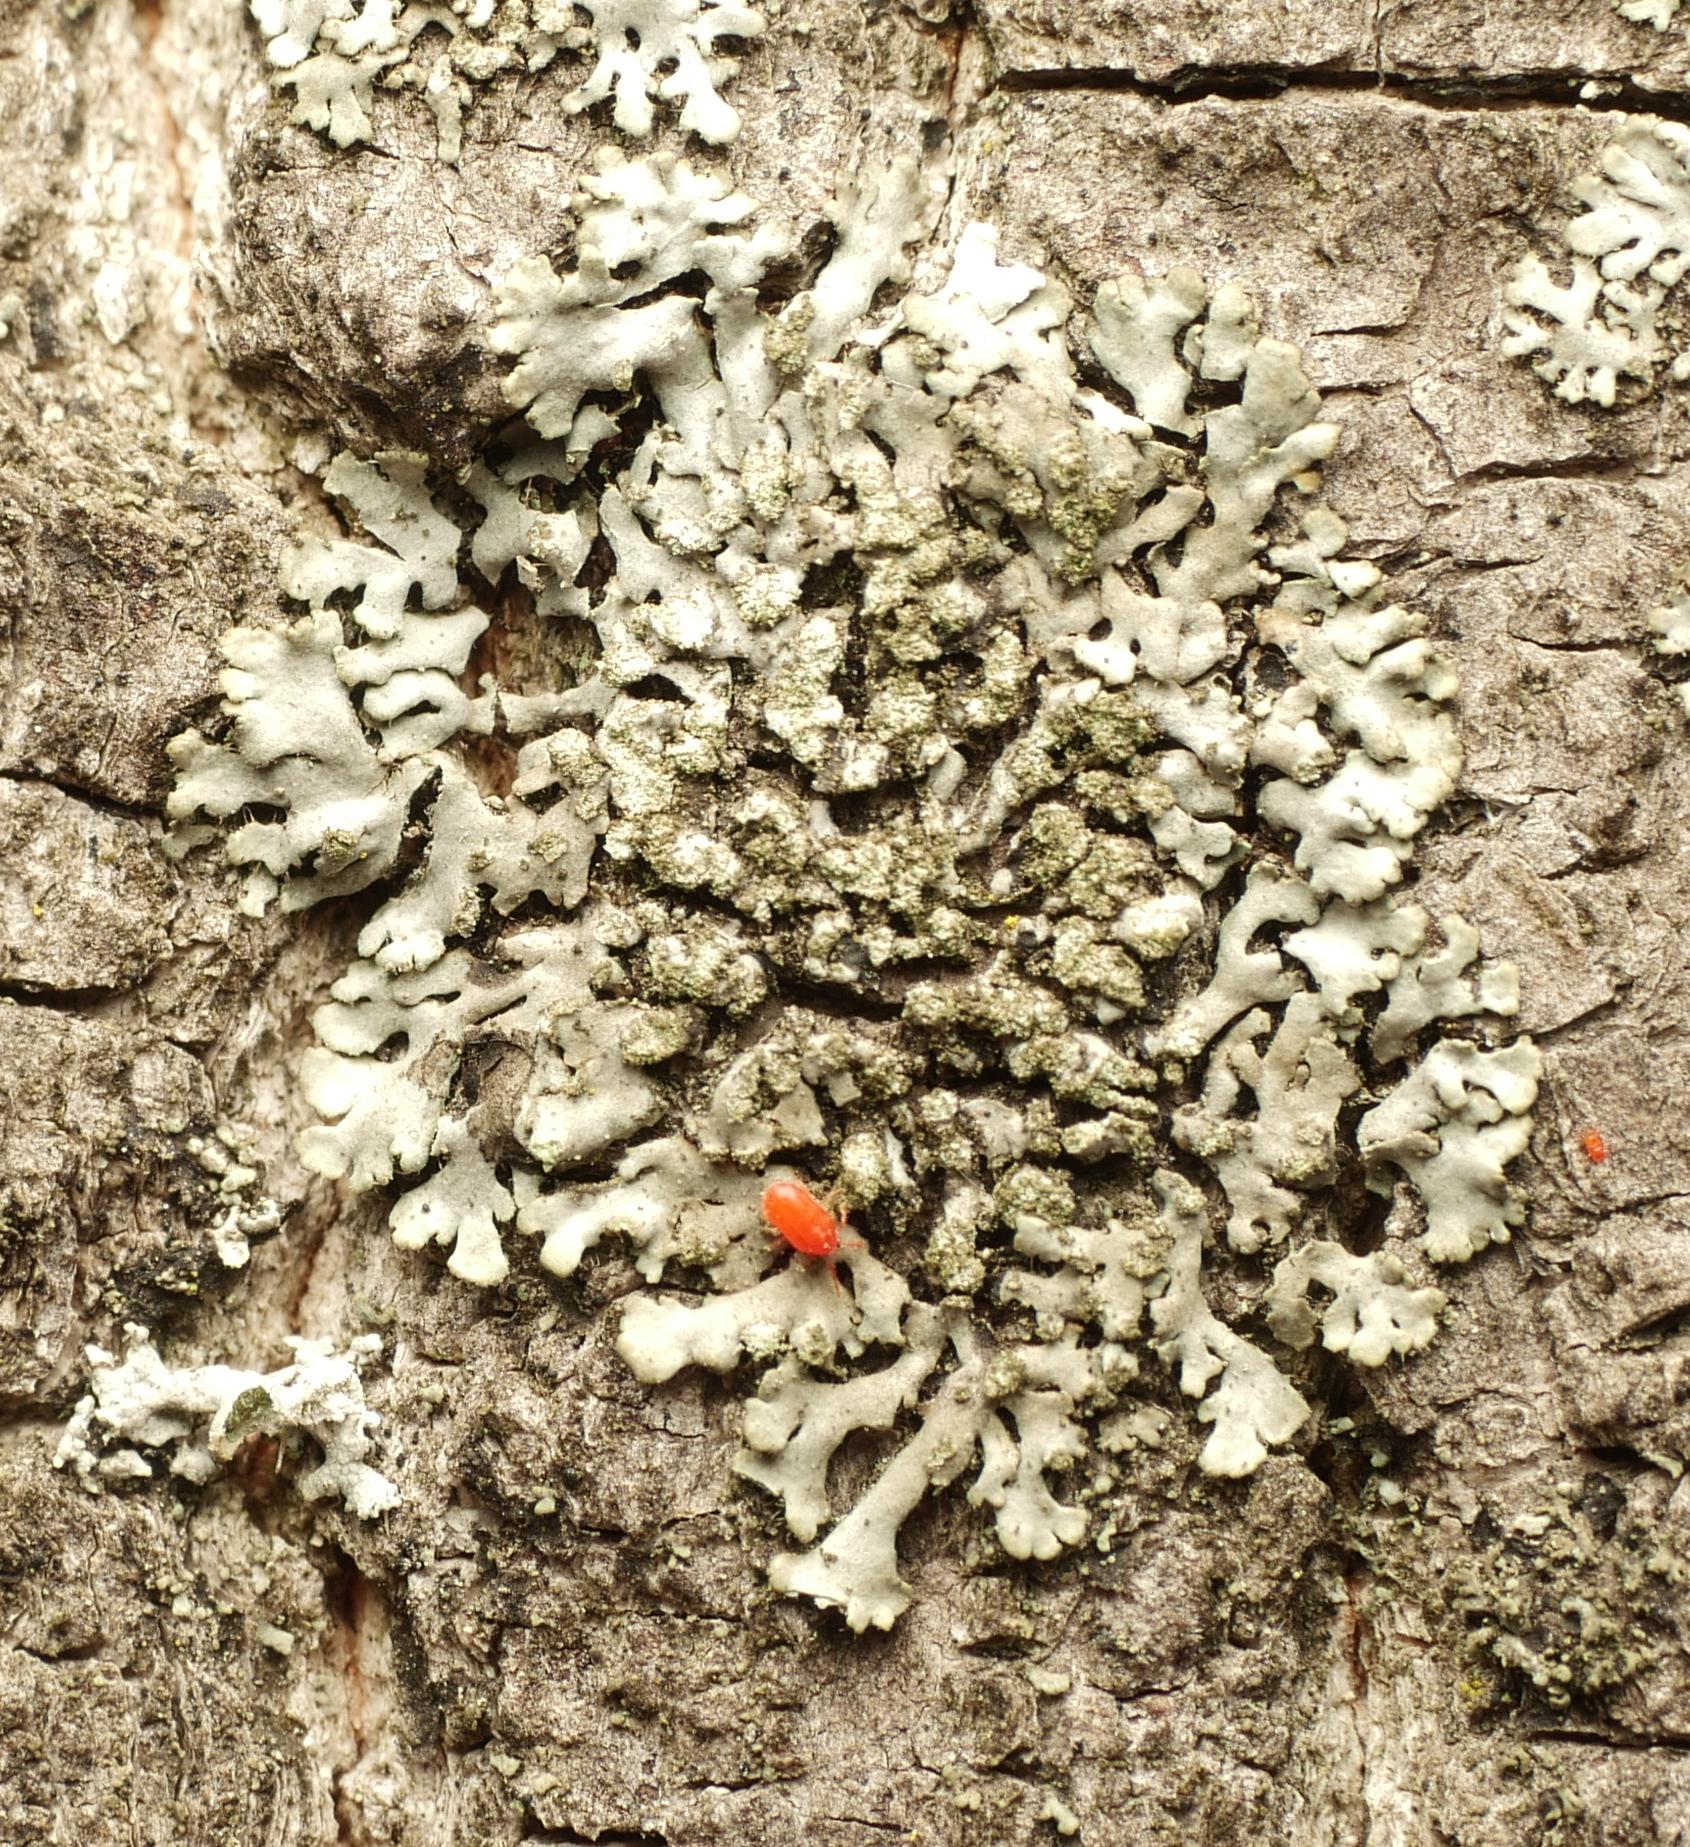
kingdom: Fungi
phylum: Ascomycota
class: Lecanoromycetes
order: Caliciales
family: Physciaceae
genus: Phaeophyscia
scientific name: Phaeophyscia orbicularis
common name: Mealy shadow lichen
